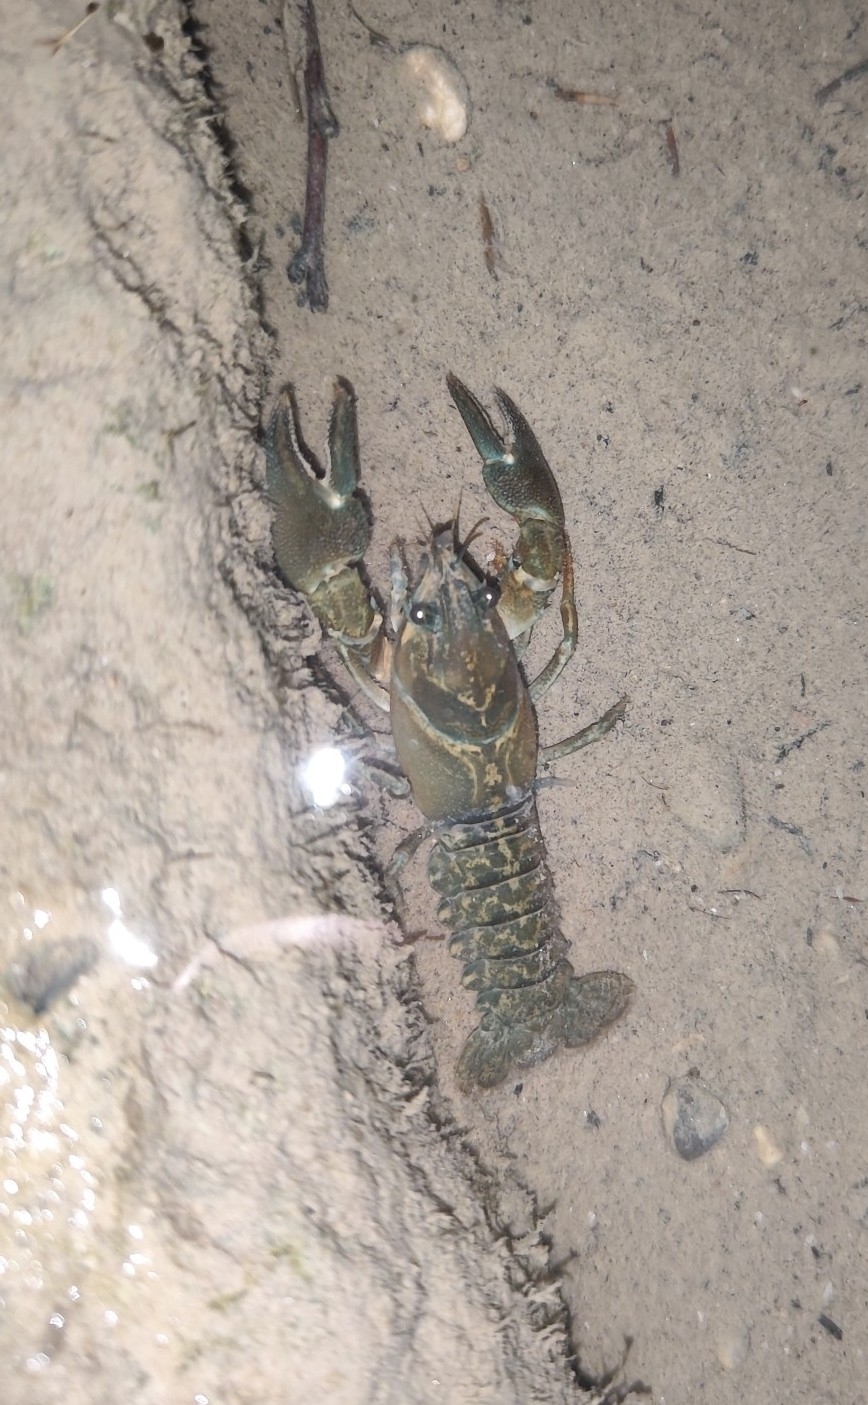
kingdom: Animalia
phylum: Arthropoda
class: Malacostraca
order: Decapoda
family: Astacidae
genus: Pacifastacus
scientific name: Pacifastacus leniusculus
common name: Signal crayfish
